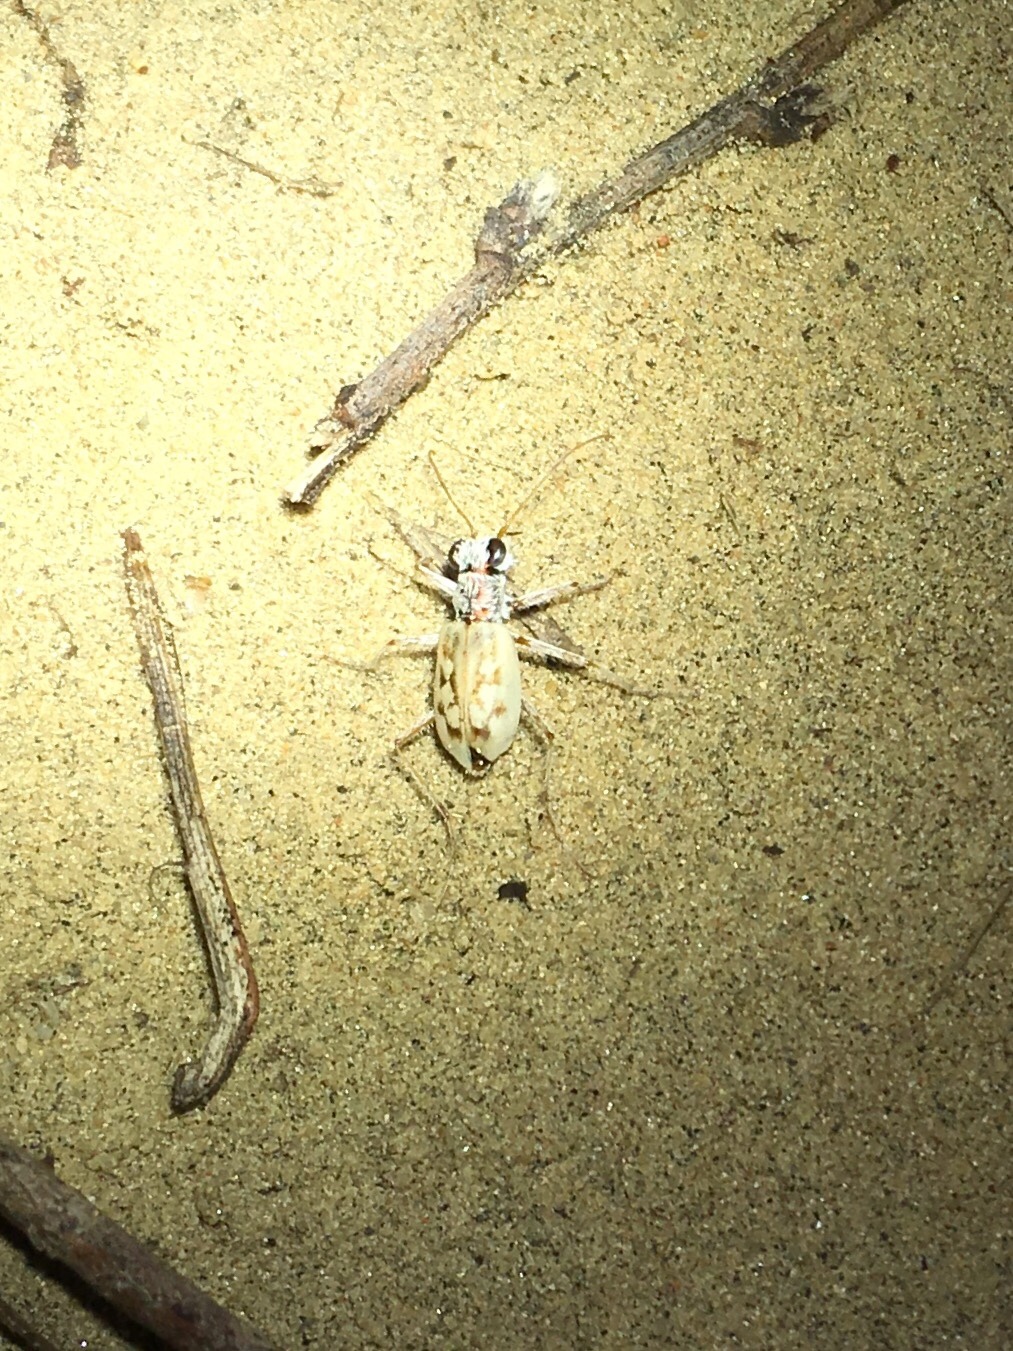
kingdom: Animalia
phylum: Arthropoda
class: Insecta
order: Coleoptera
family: Carabidae
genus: Ellipsoptera
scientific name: Ellipsoptera lepida
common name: Ghost tiger beetle
